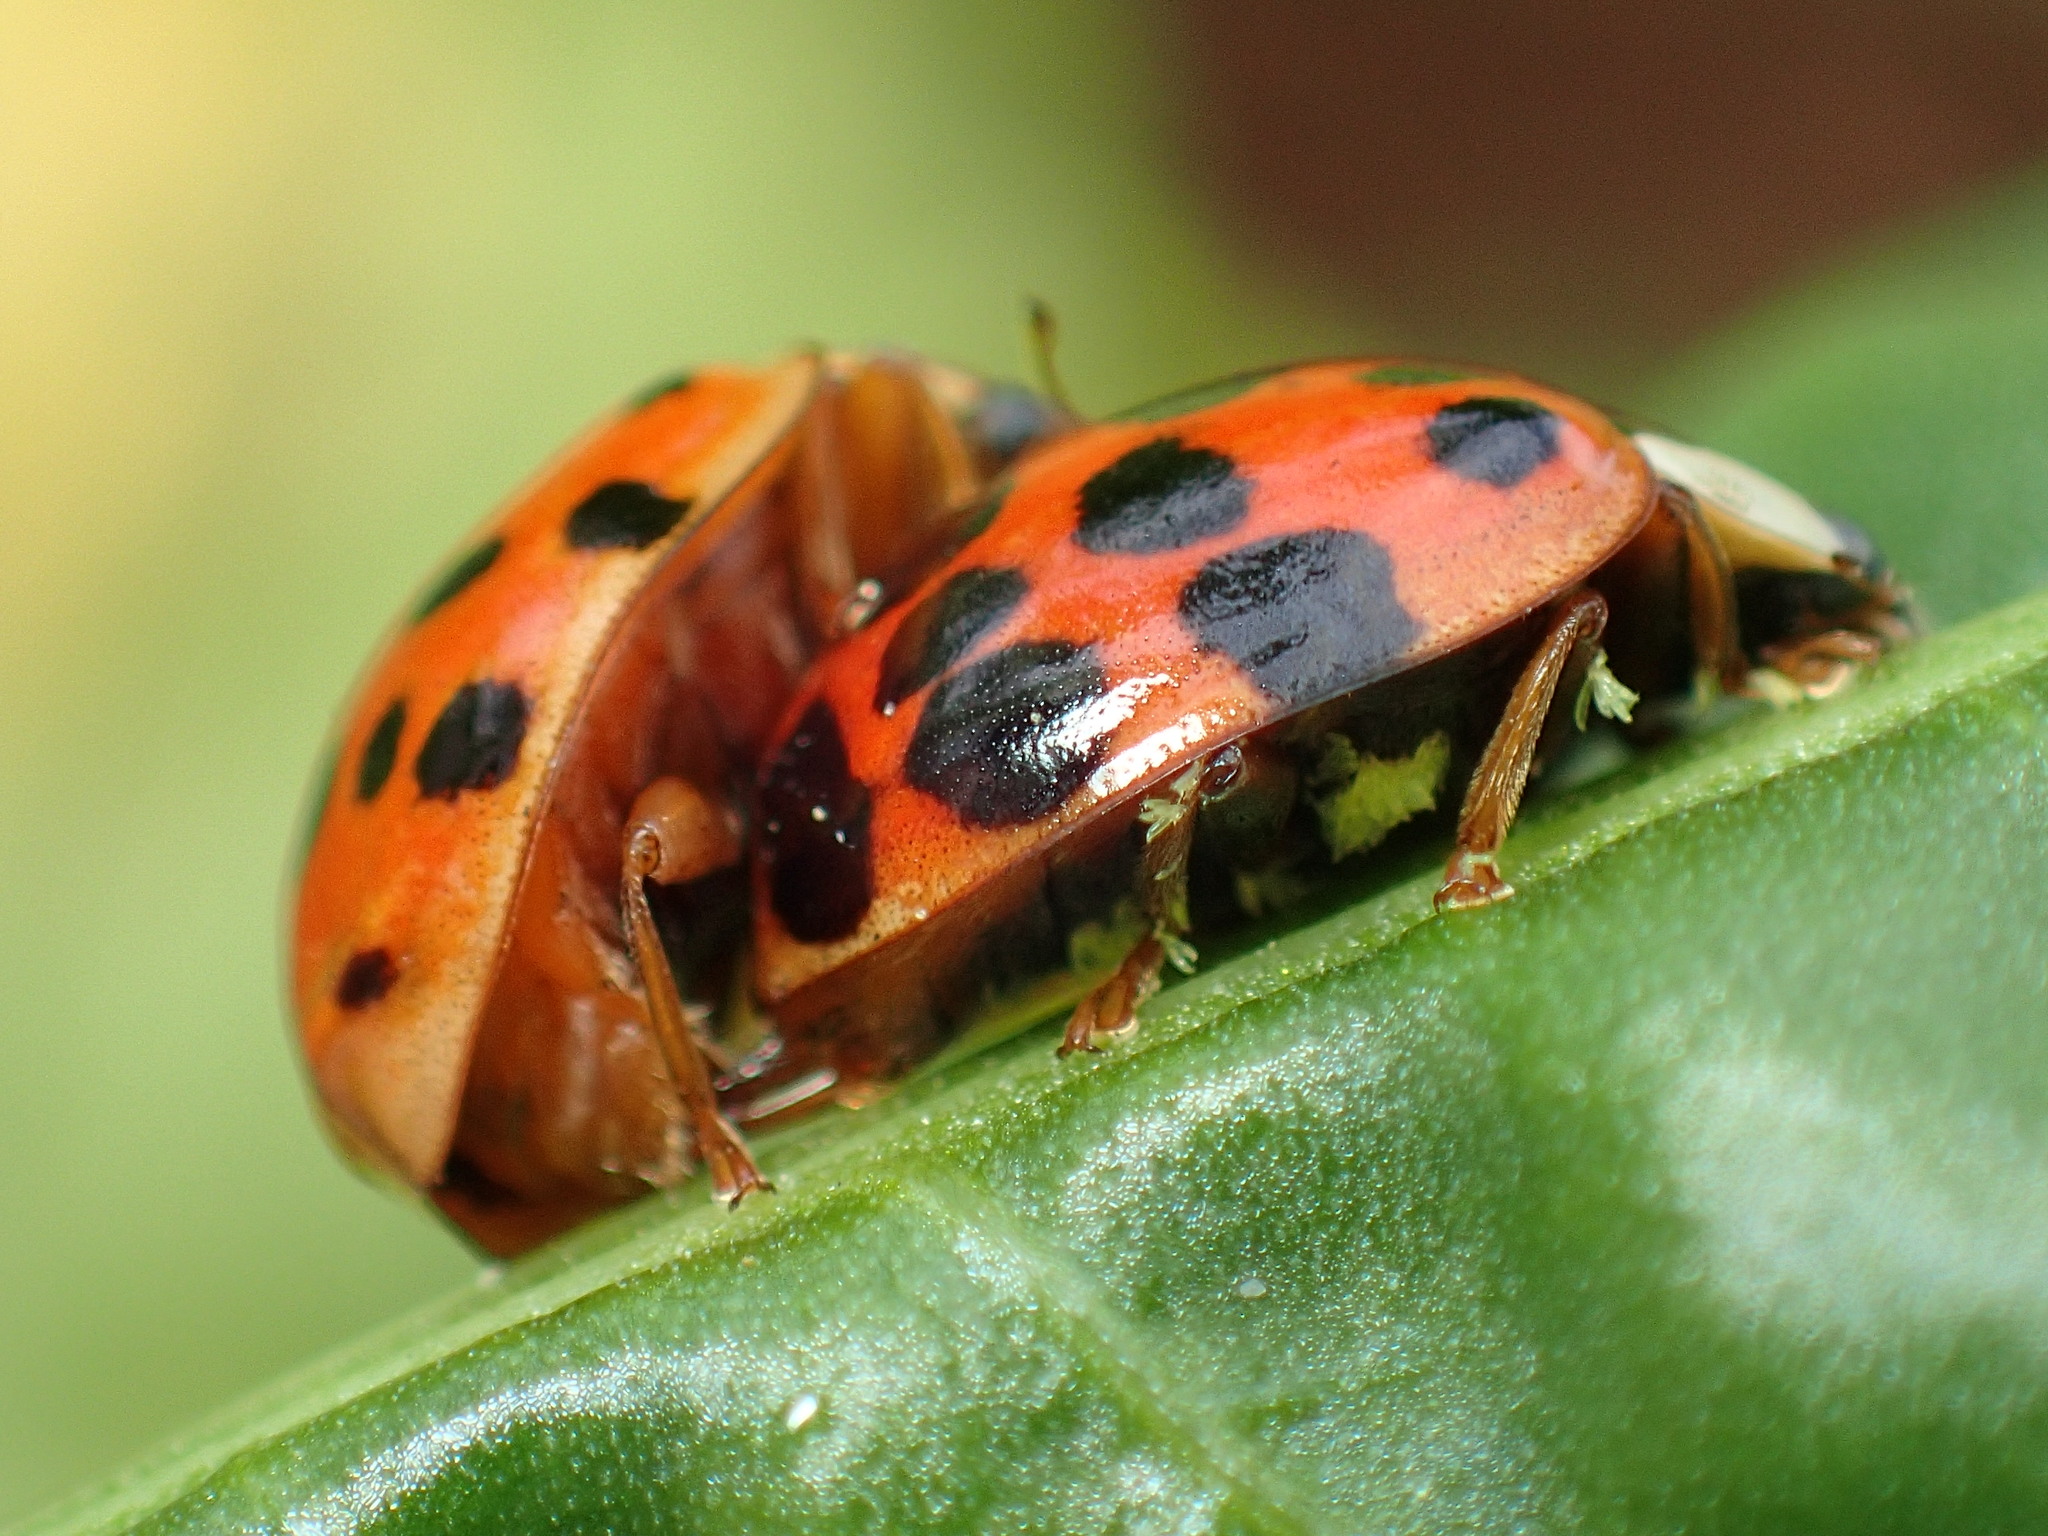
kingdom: Fungi
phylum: Ascomycota
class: Laboulbeniomycetes
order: Laboulbeniales
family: Laboulbeniaceae
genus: Hesperomyces
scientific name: Hesperomyces harmoniae
